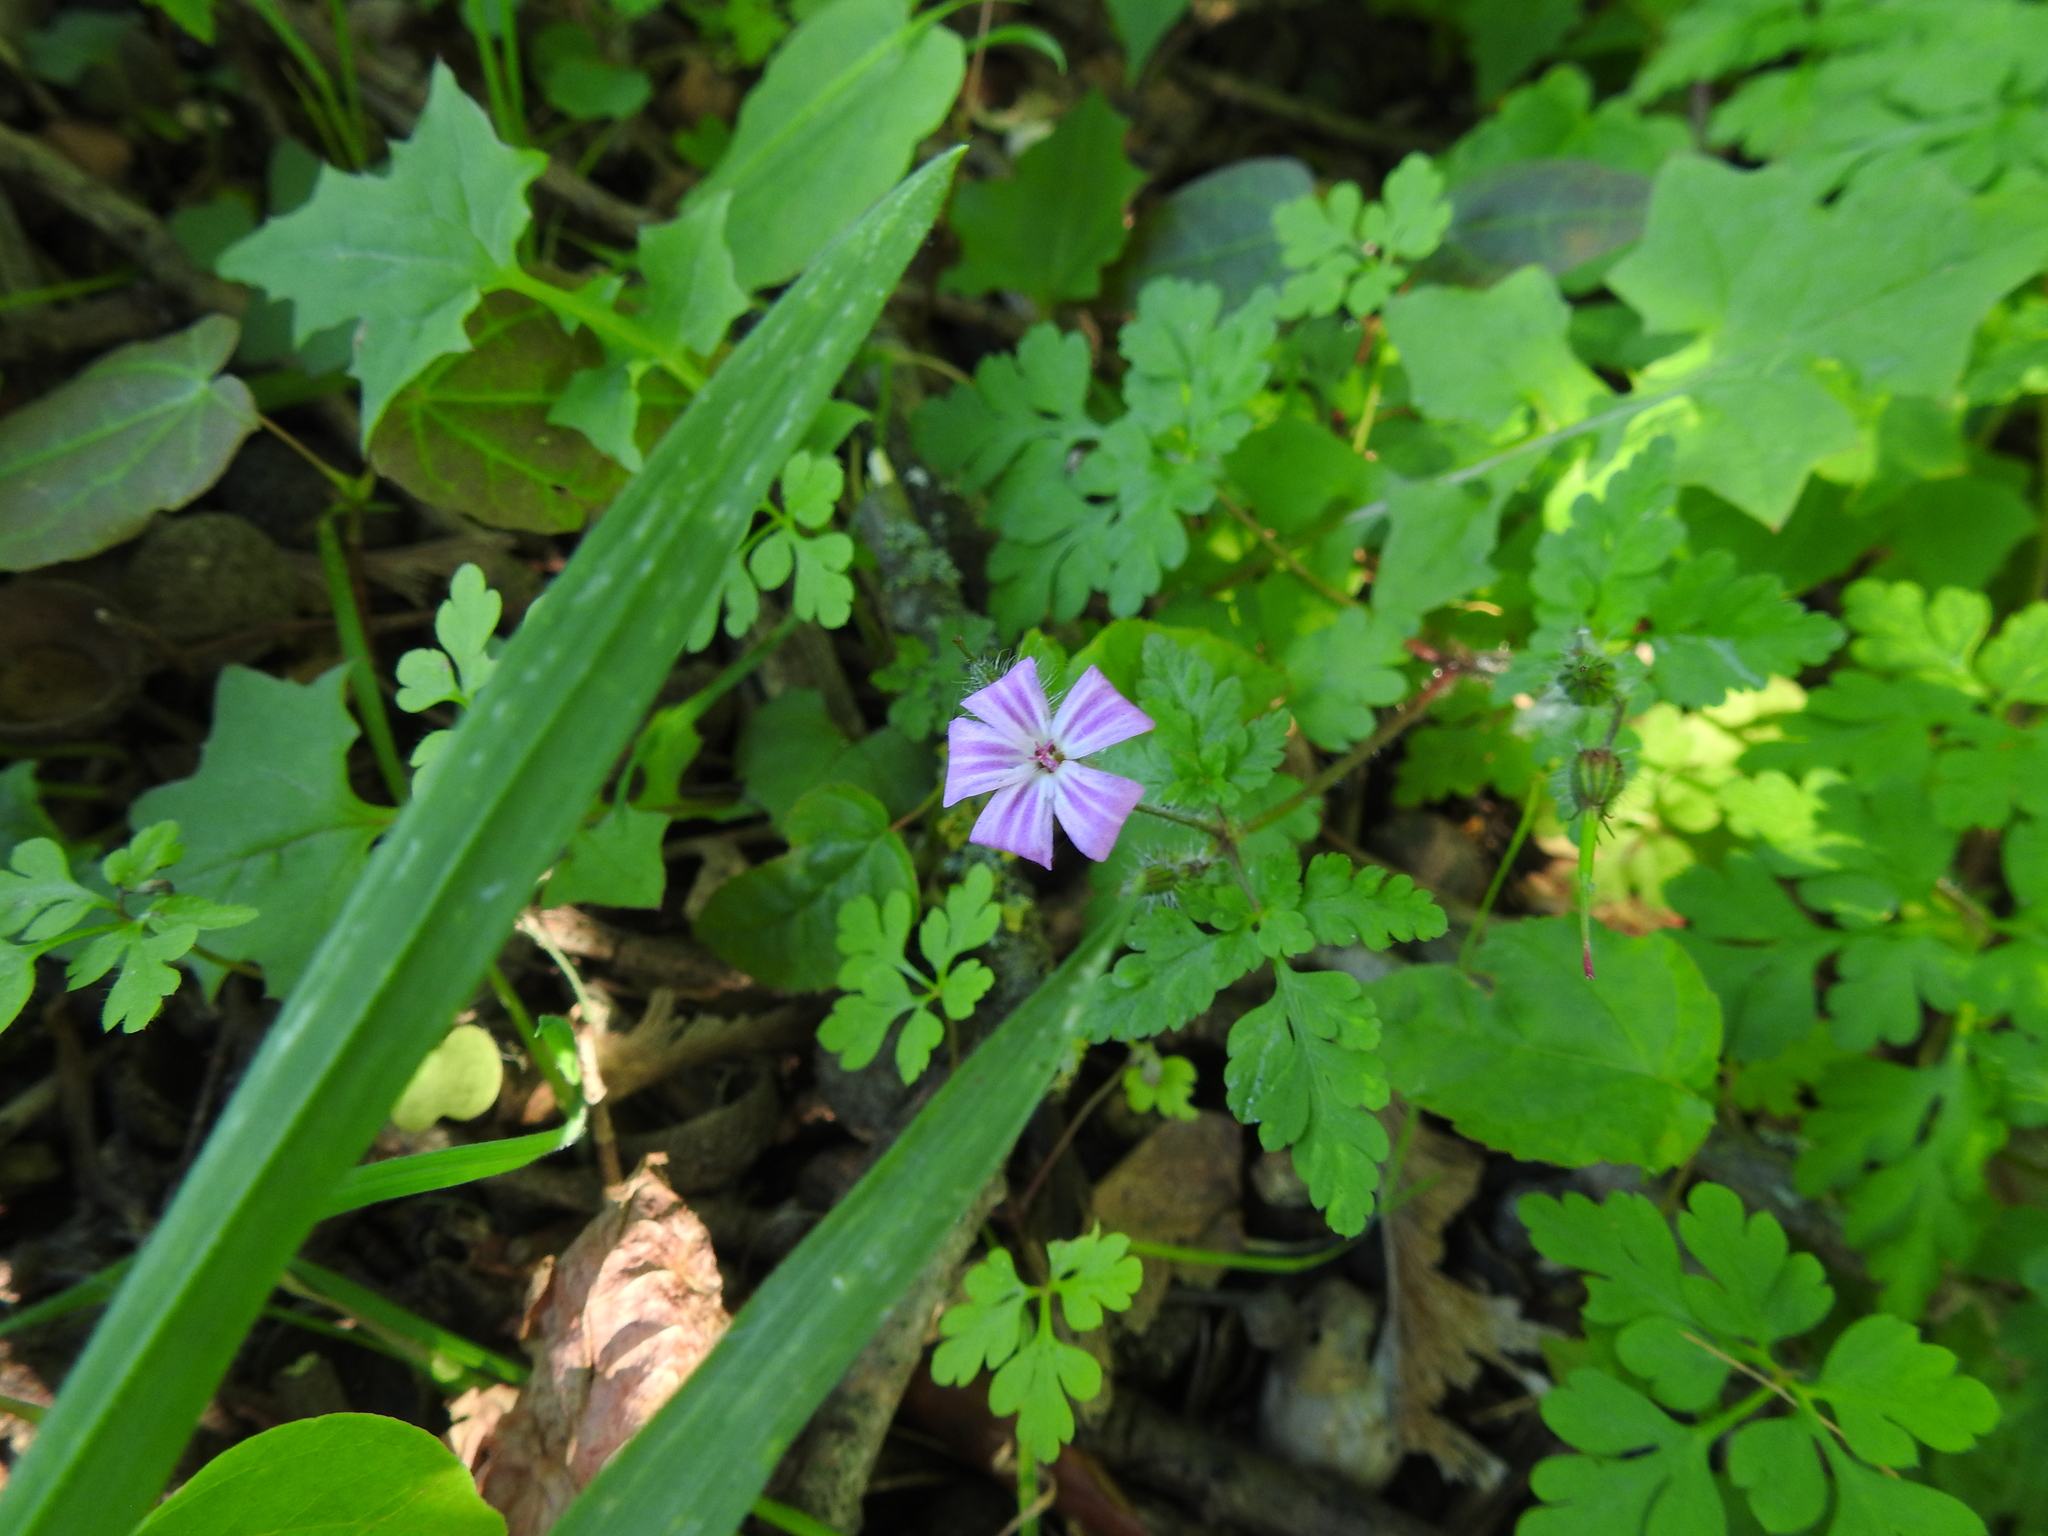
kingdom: Plantae
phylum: Tracheophyta
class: Magnoliopsida
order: Geraniales
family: Geraniaceae
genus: Geranium
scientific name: Geranium robertianum
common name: Herb-robert
